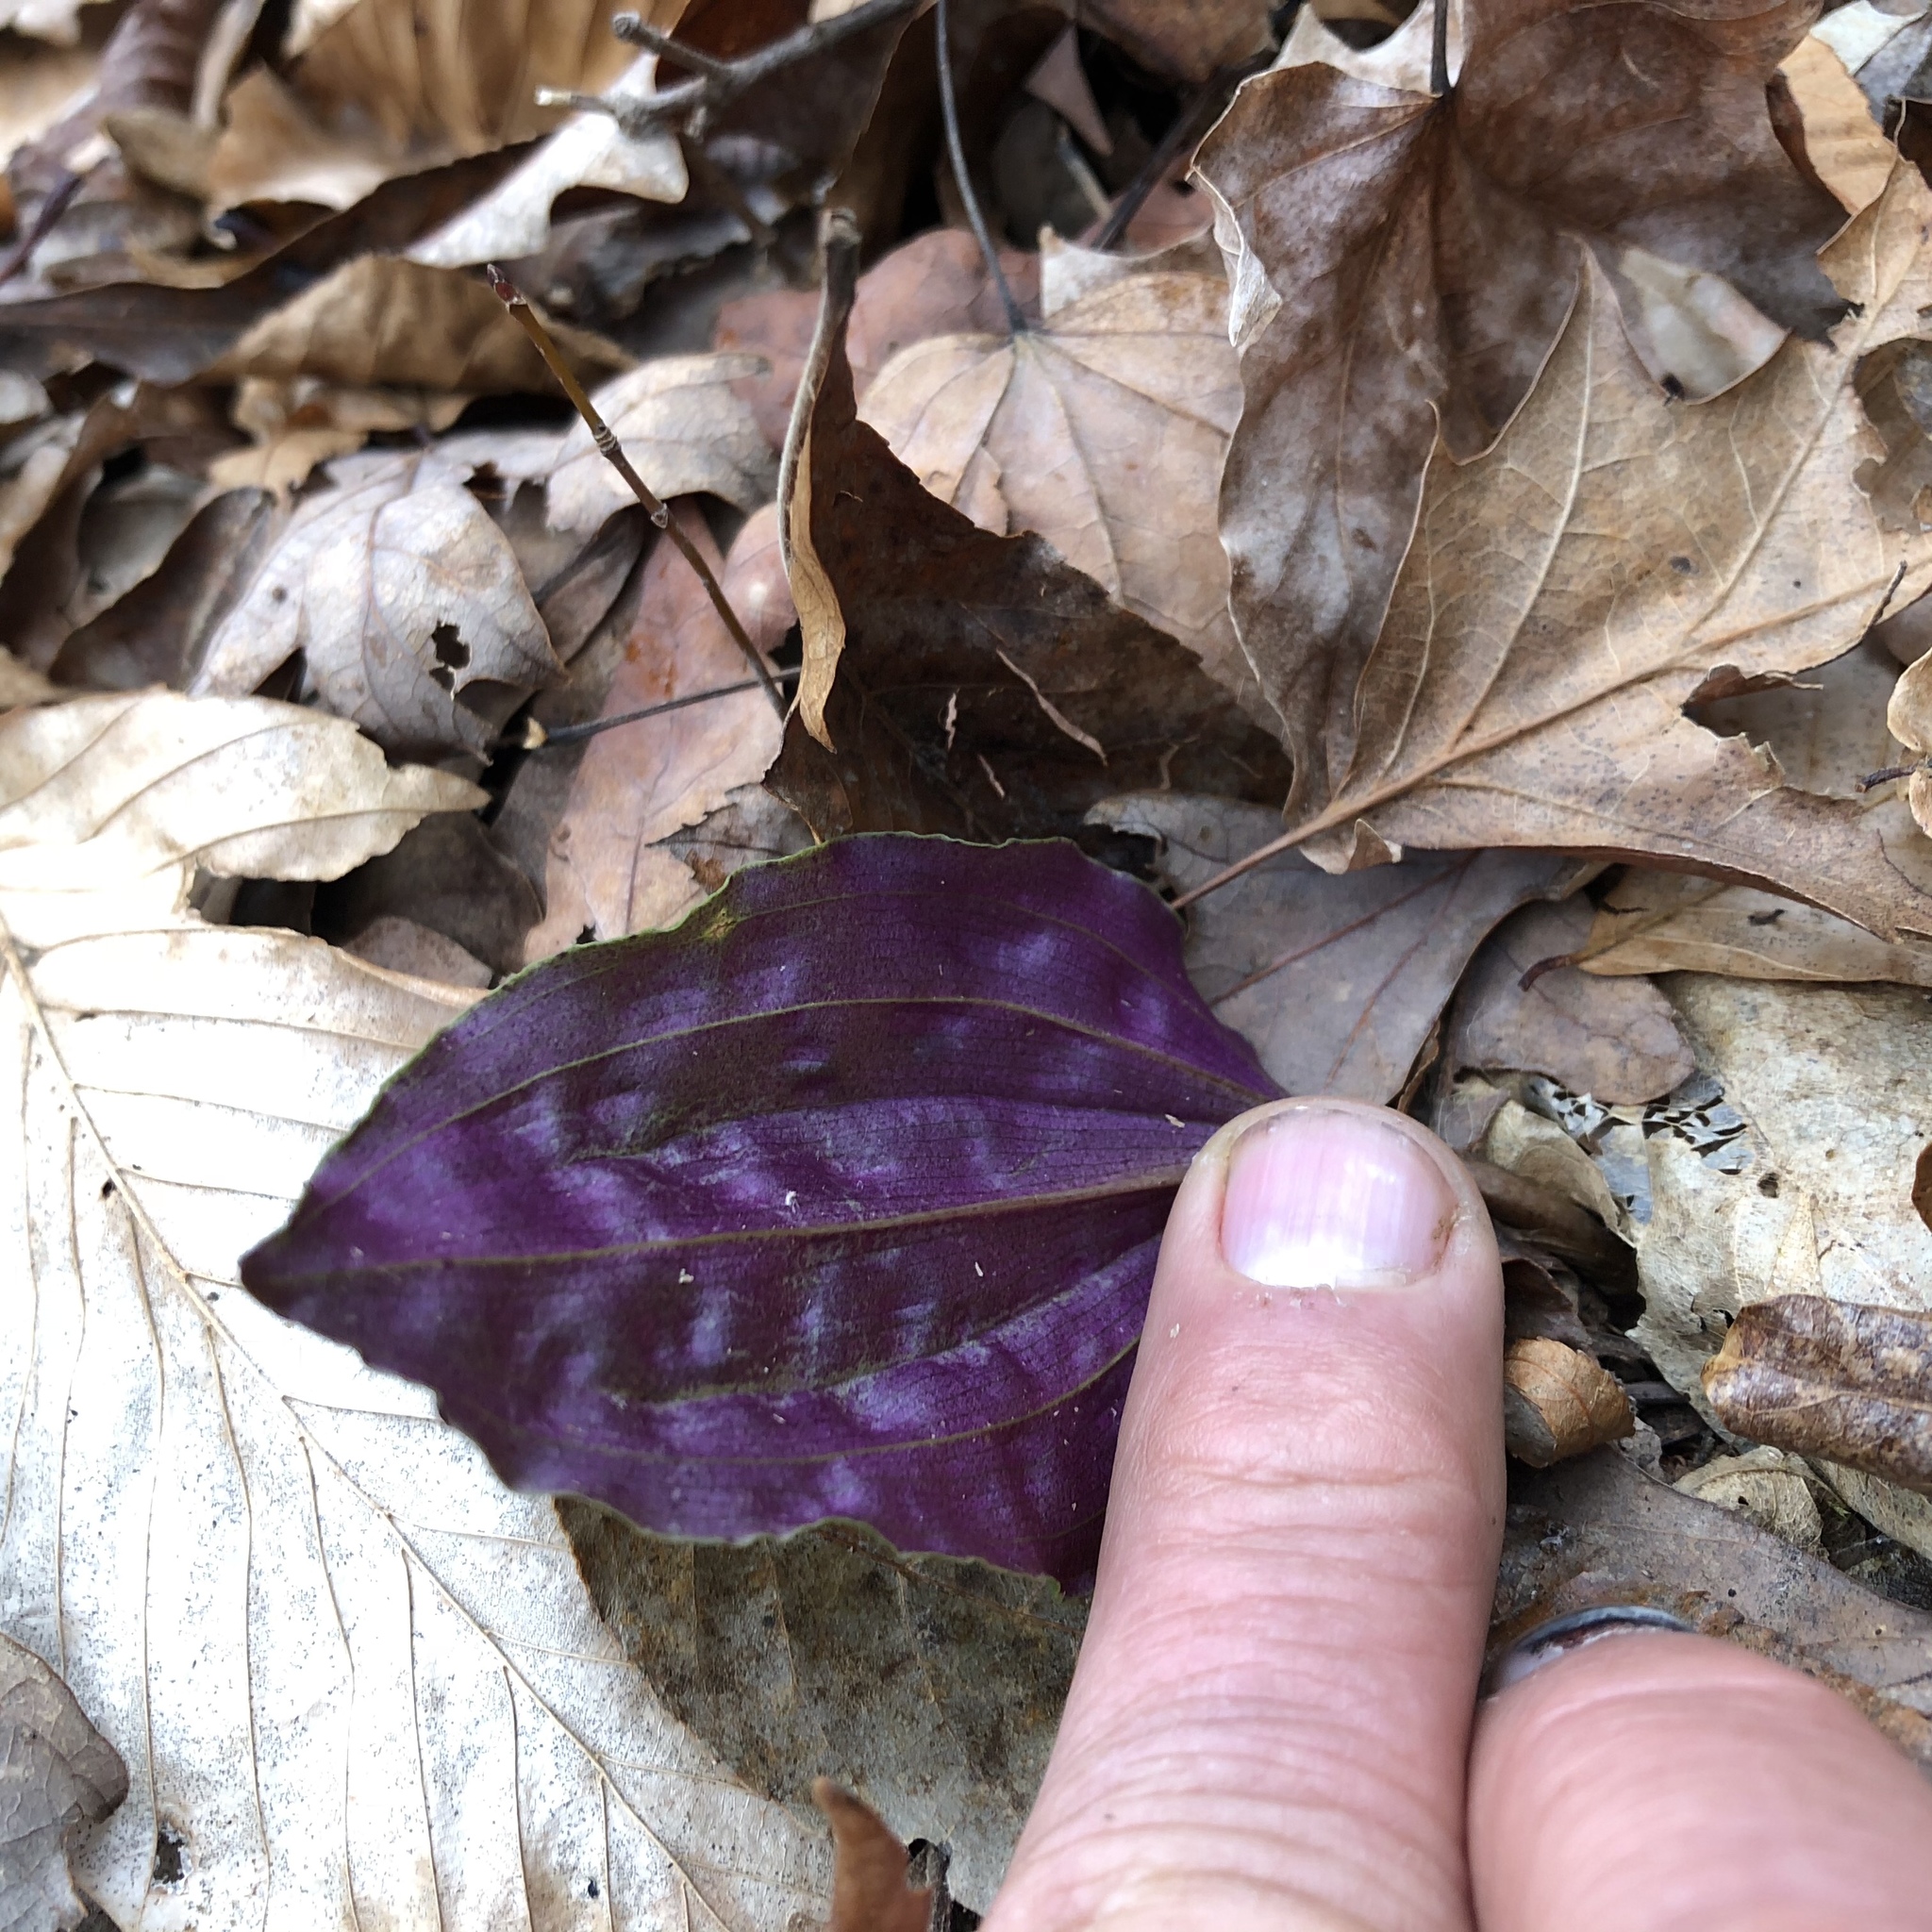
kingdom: Plantae
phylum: Tracheophyta
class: Liliopsida
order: Asparagales
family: Orchidaceae
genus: Tipularia
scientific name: Tipularia discolor
